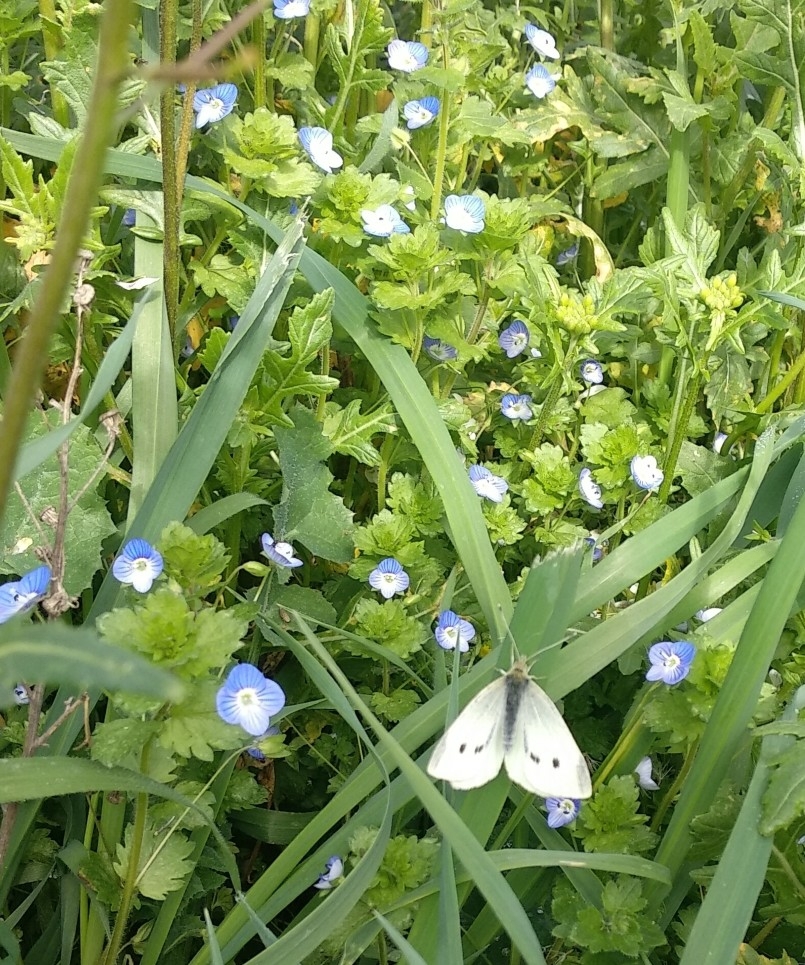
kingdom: Animalia
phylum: Arthropoda
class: Insecta
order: Lepidoptera
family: Pieridae
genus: Pieris
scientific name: Pieris rapae
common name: Small white
